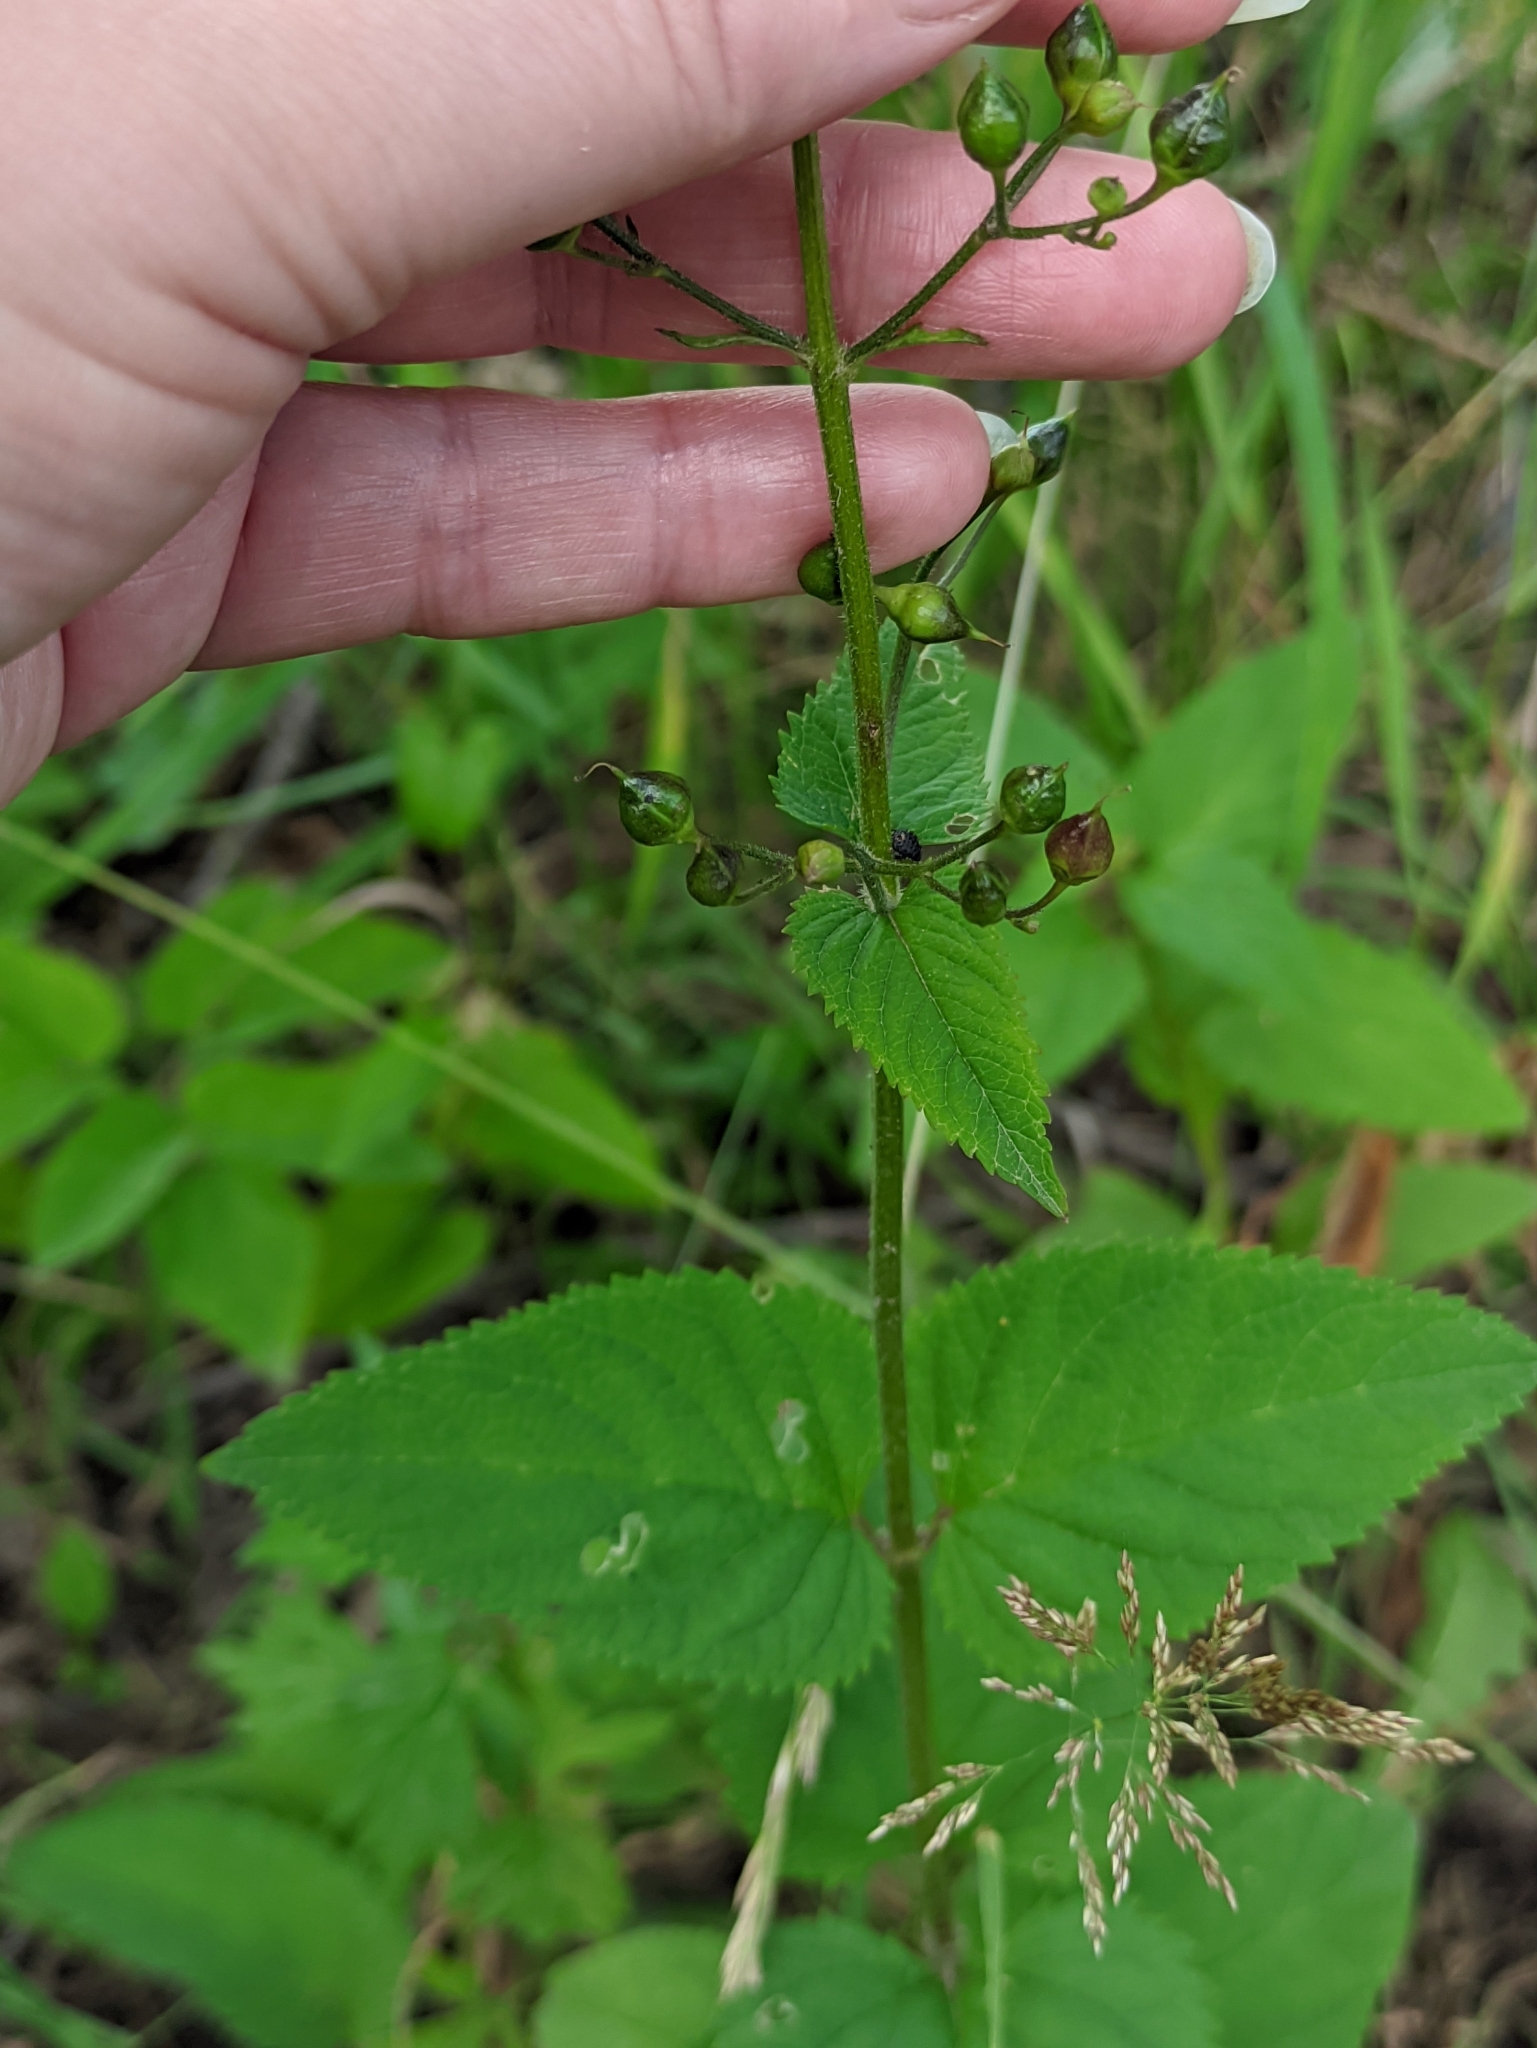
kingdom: Plantae
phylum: Tracheophyta
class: Magnoliopsida
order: Lamiales
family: Scrophulariaceae
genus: Scrophularia
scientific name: Scrophularia nodosa
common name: Common figwort
